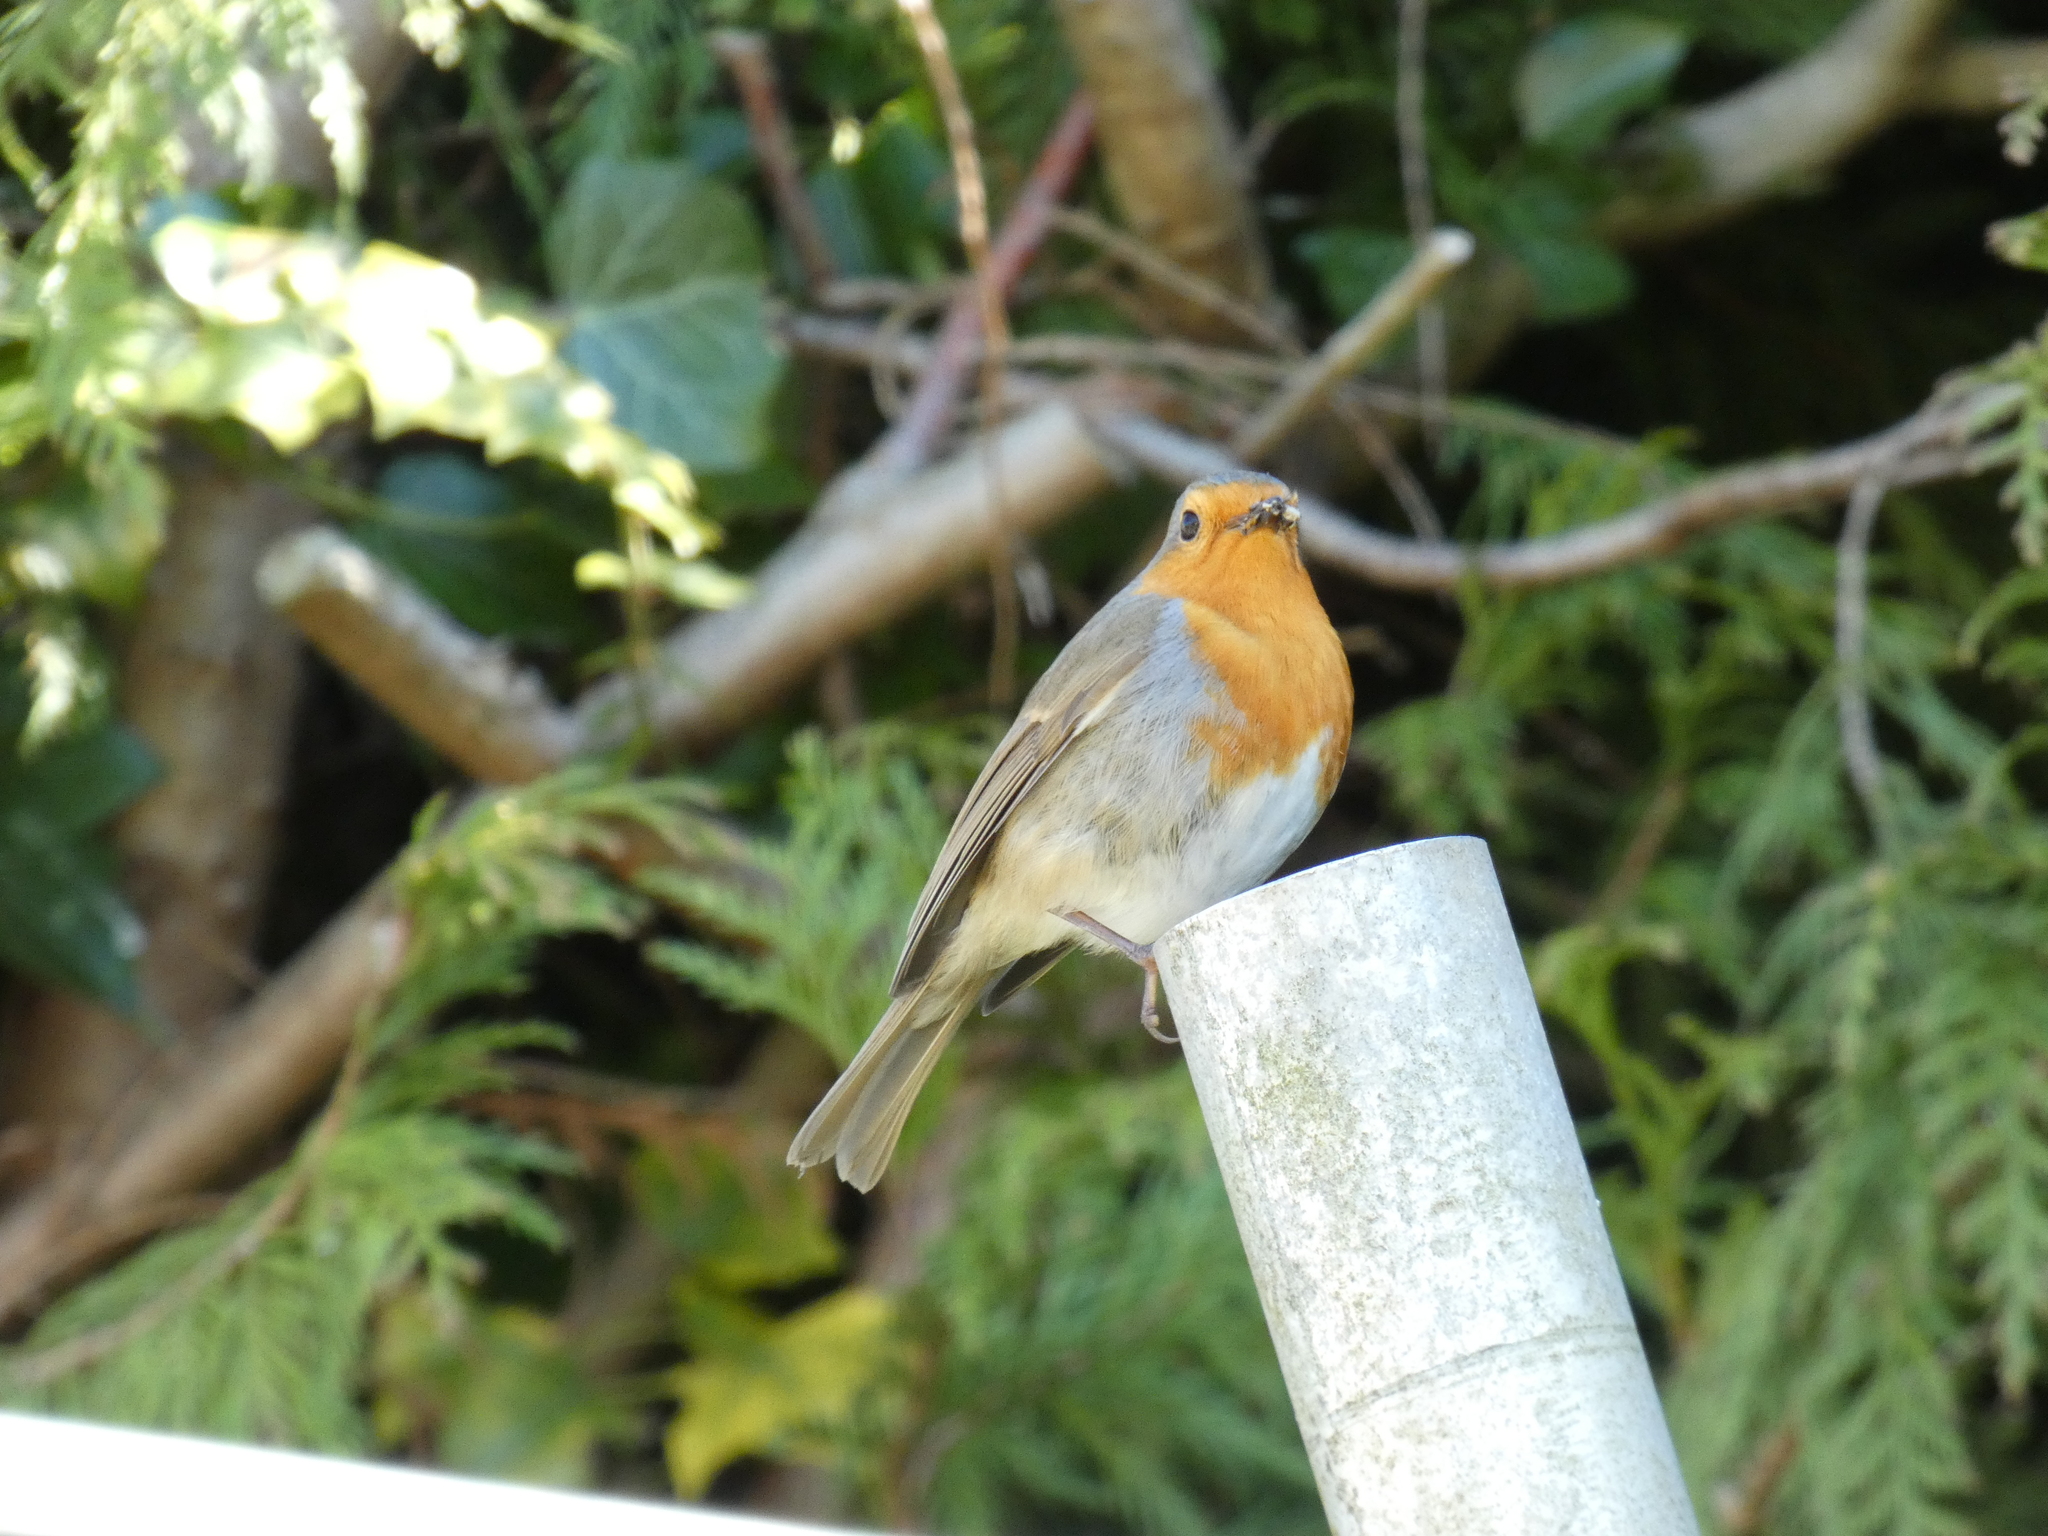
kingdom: Animalia
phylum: Chordata
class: Aves
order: Passeriformes
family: Muscicapidae
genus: Erithacus
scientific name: Erithacus rubecula
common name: European robin
